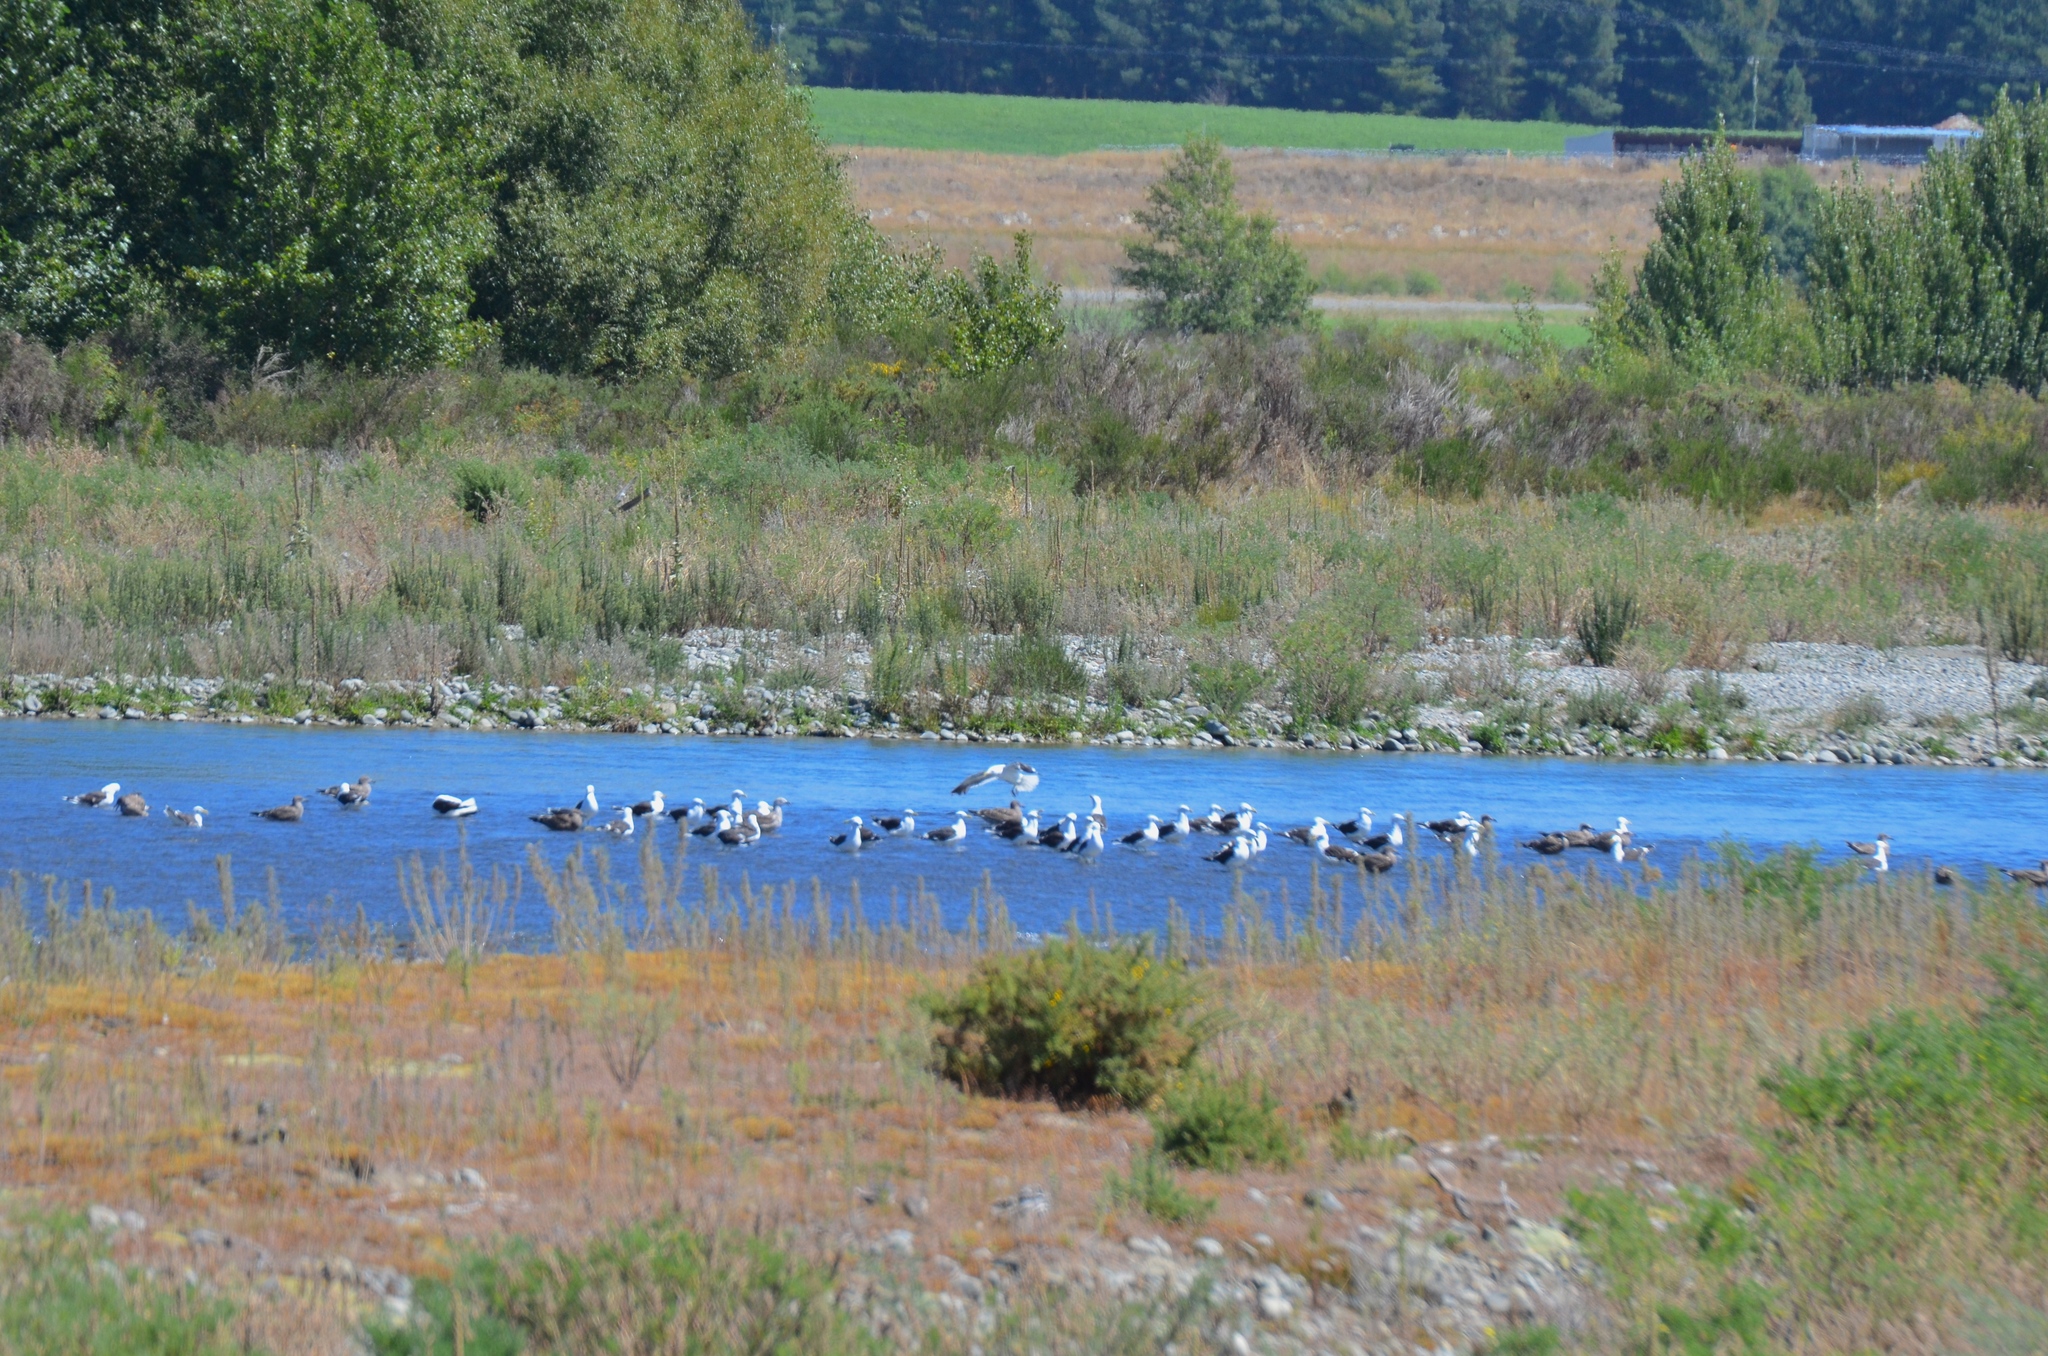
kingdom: Animalia
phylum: Chordata
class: Aves
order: Charadriiformes
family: Laridae
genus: Larus
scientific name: Larus dominicanus
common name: Kelp gull
